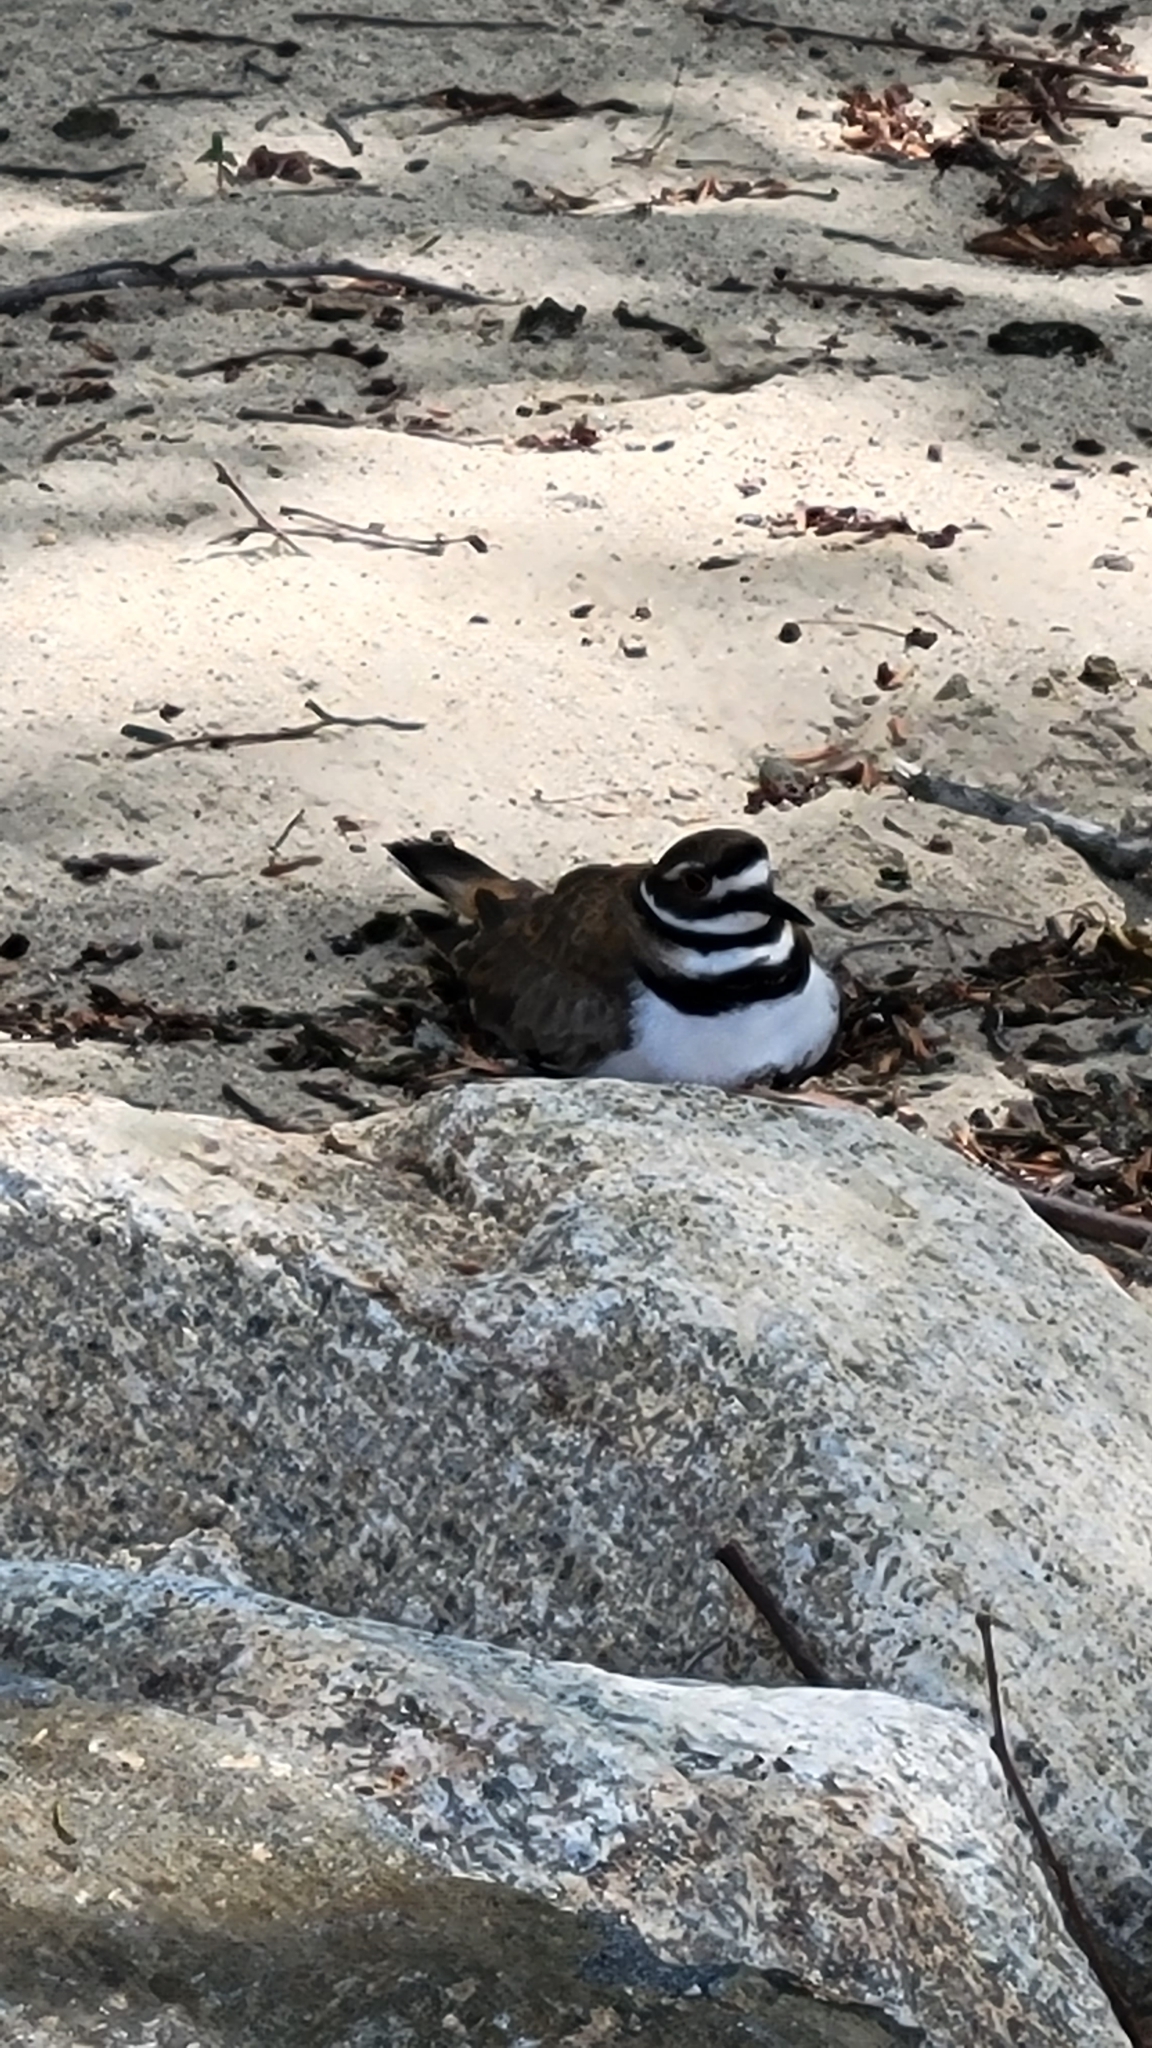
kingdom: Animalia
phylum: Chordata
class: Aves
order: Charadriiformes
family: Charadriidae
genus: Charadrius
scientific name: Charadrius vociferus
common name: Killdeer
